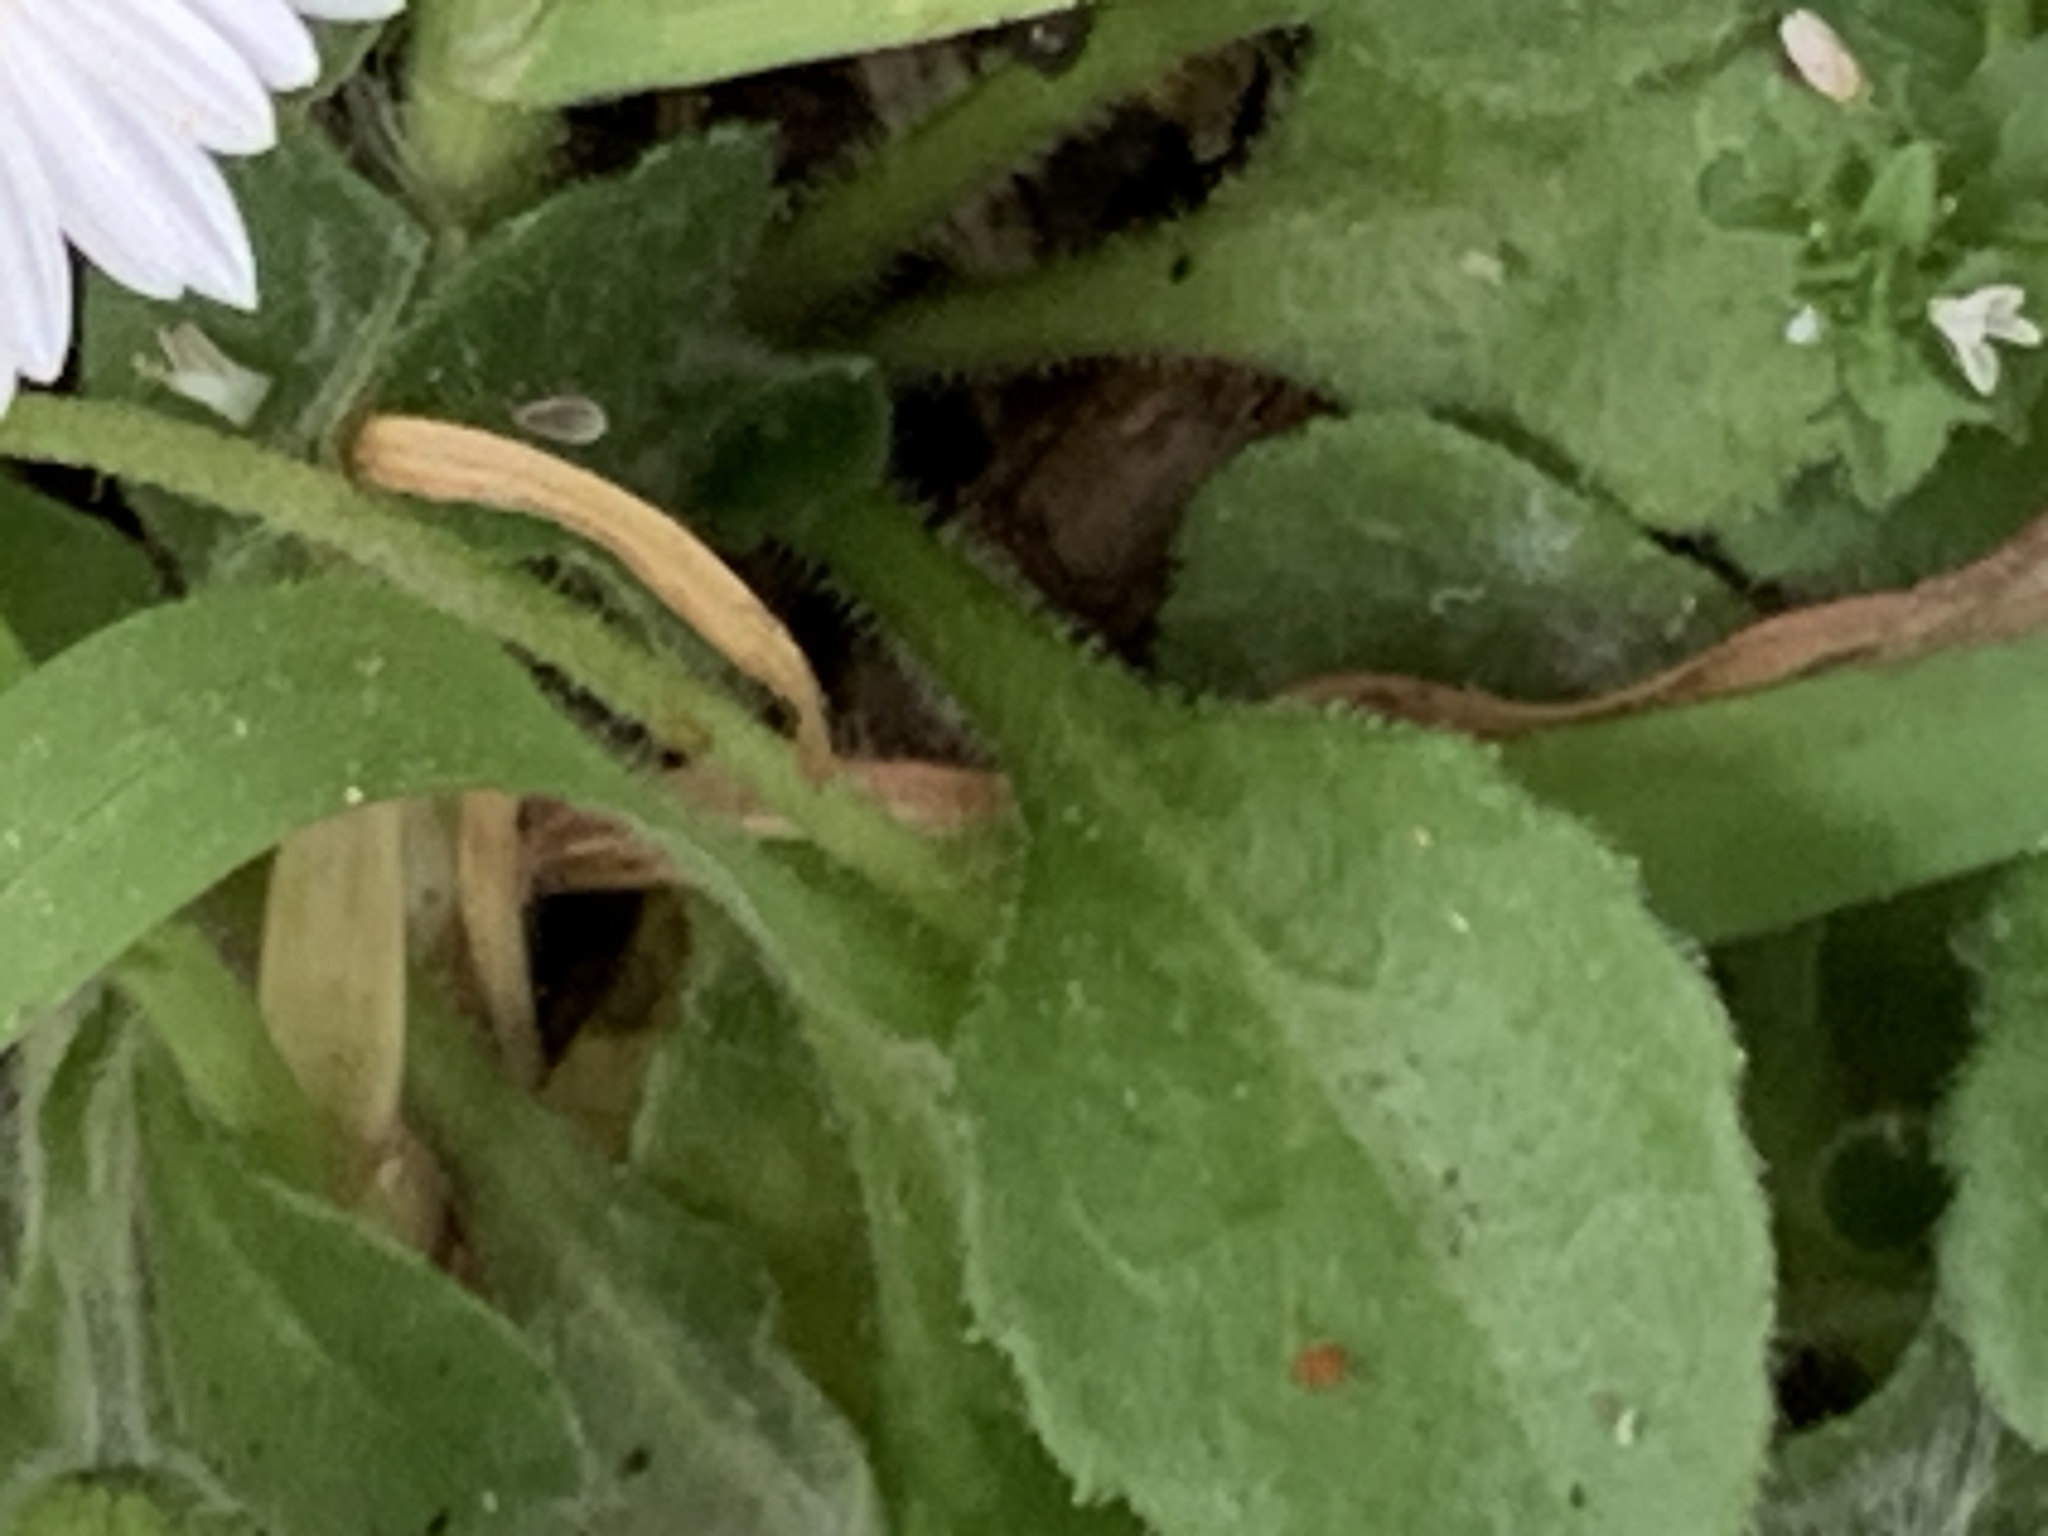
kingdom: Plantae
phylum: Tracheophyta
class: Magnoliopsida
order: Asterales
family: Asteraceae
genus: Bellis
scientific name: Bellis perennis
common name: Lawndaisy
